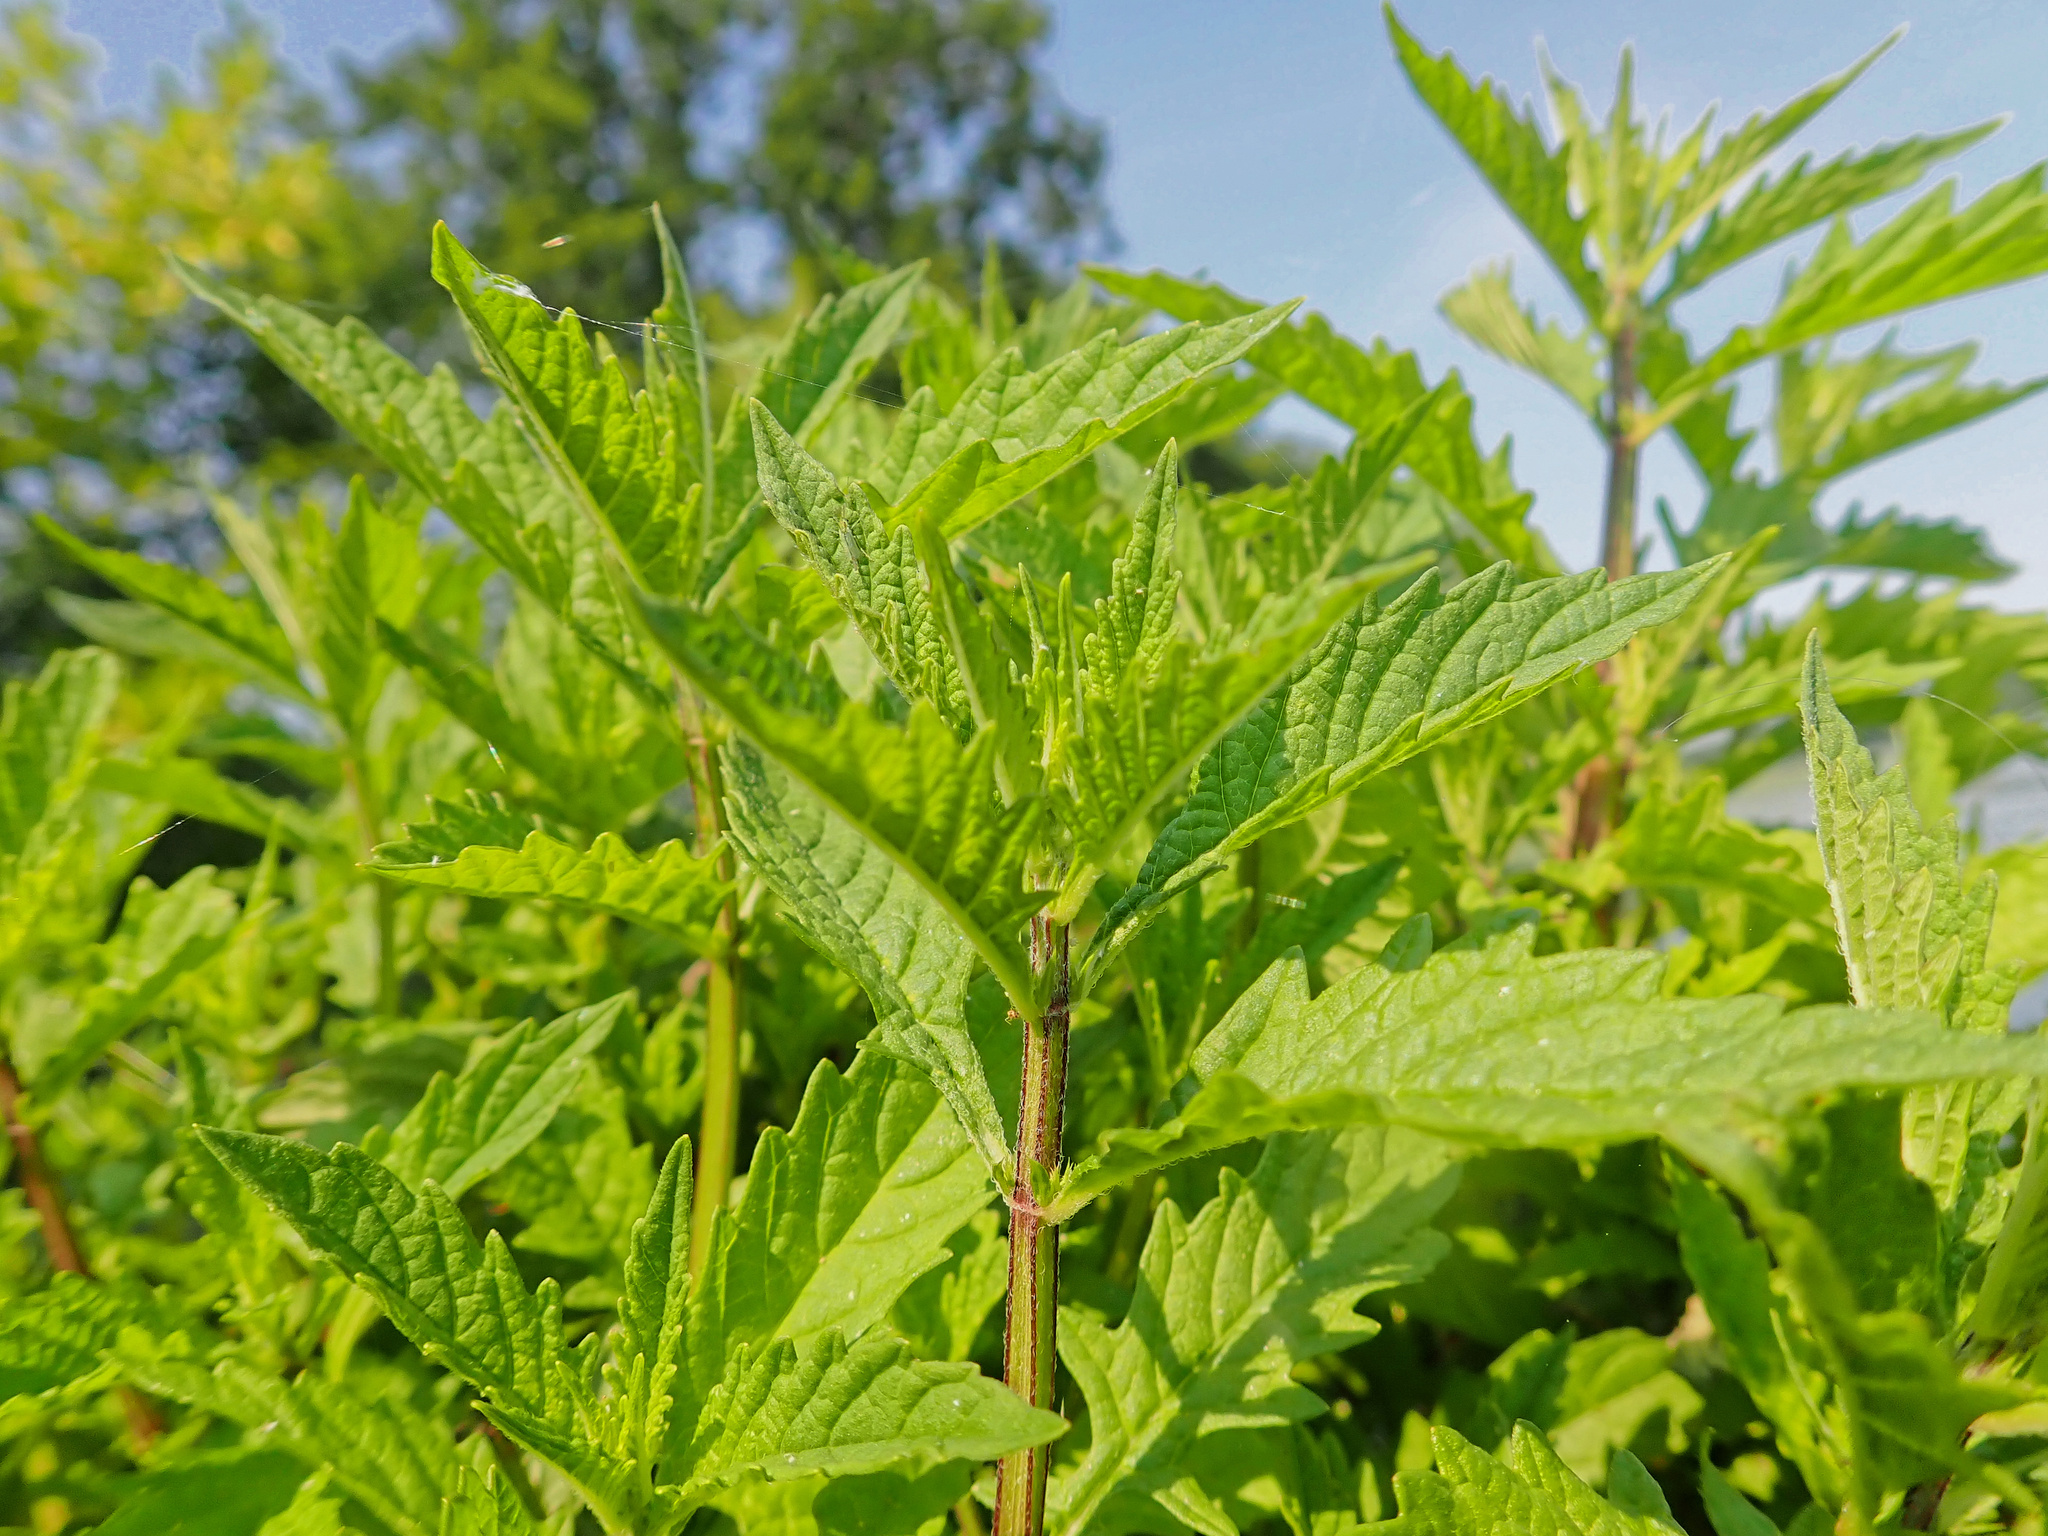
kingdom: Plantae
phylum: Tracheophyta
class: Magnoliopsida
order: Lamiales
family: Lamiaceae
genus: Lycopus
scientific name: Lycopus europaeus
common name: European bugleweed
